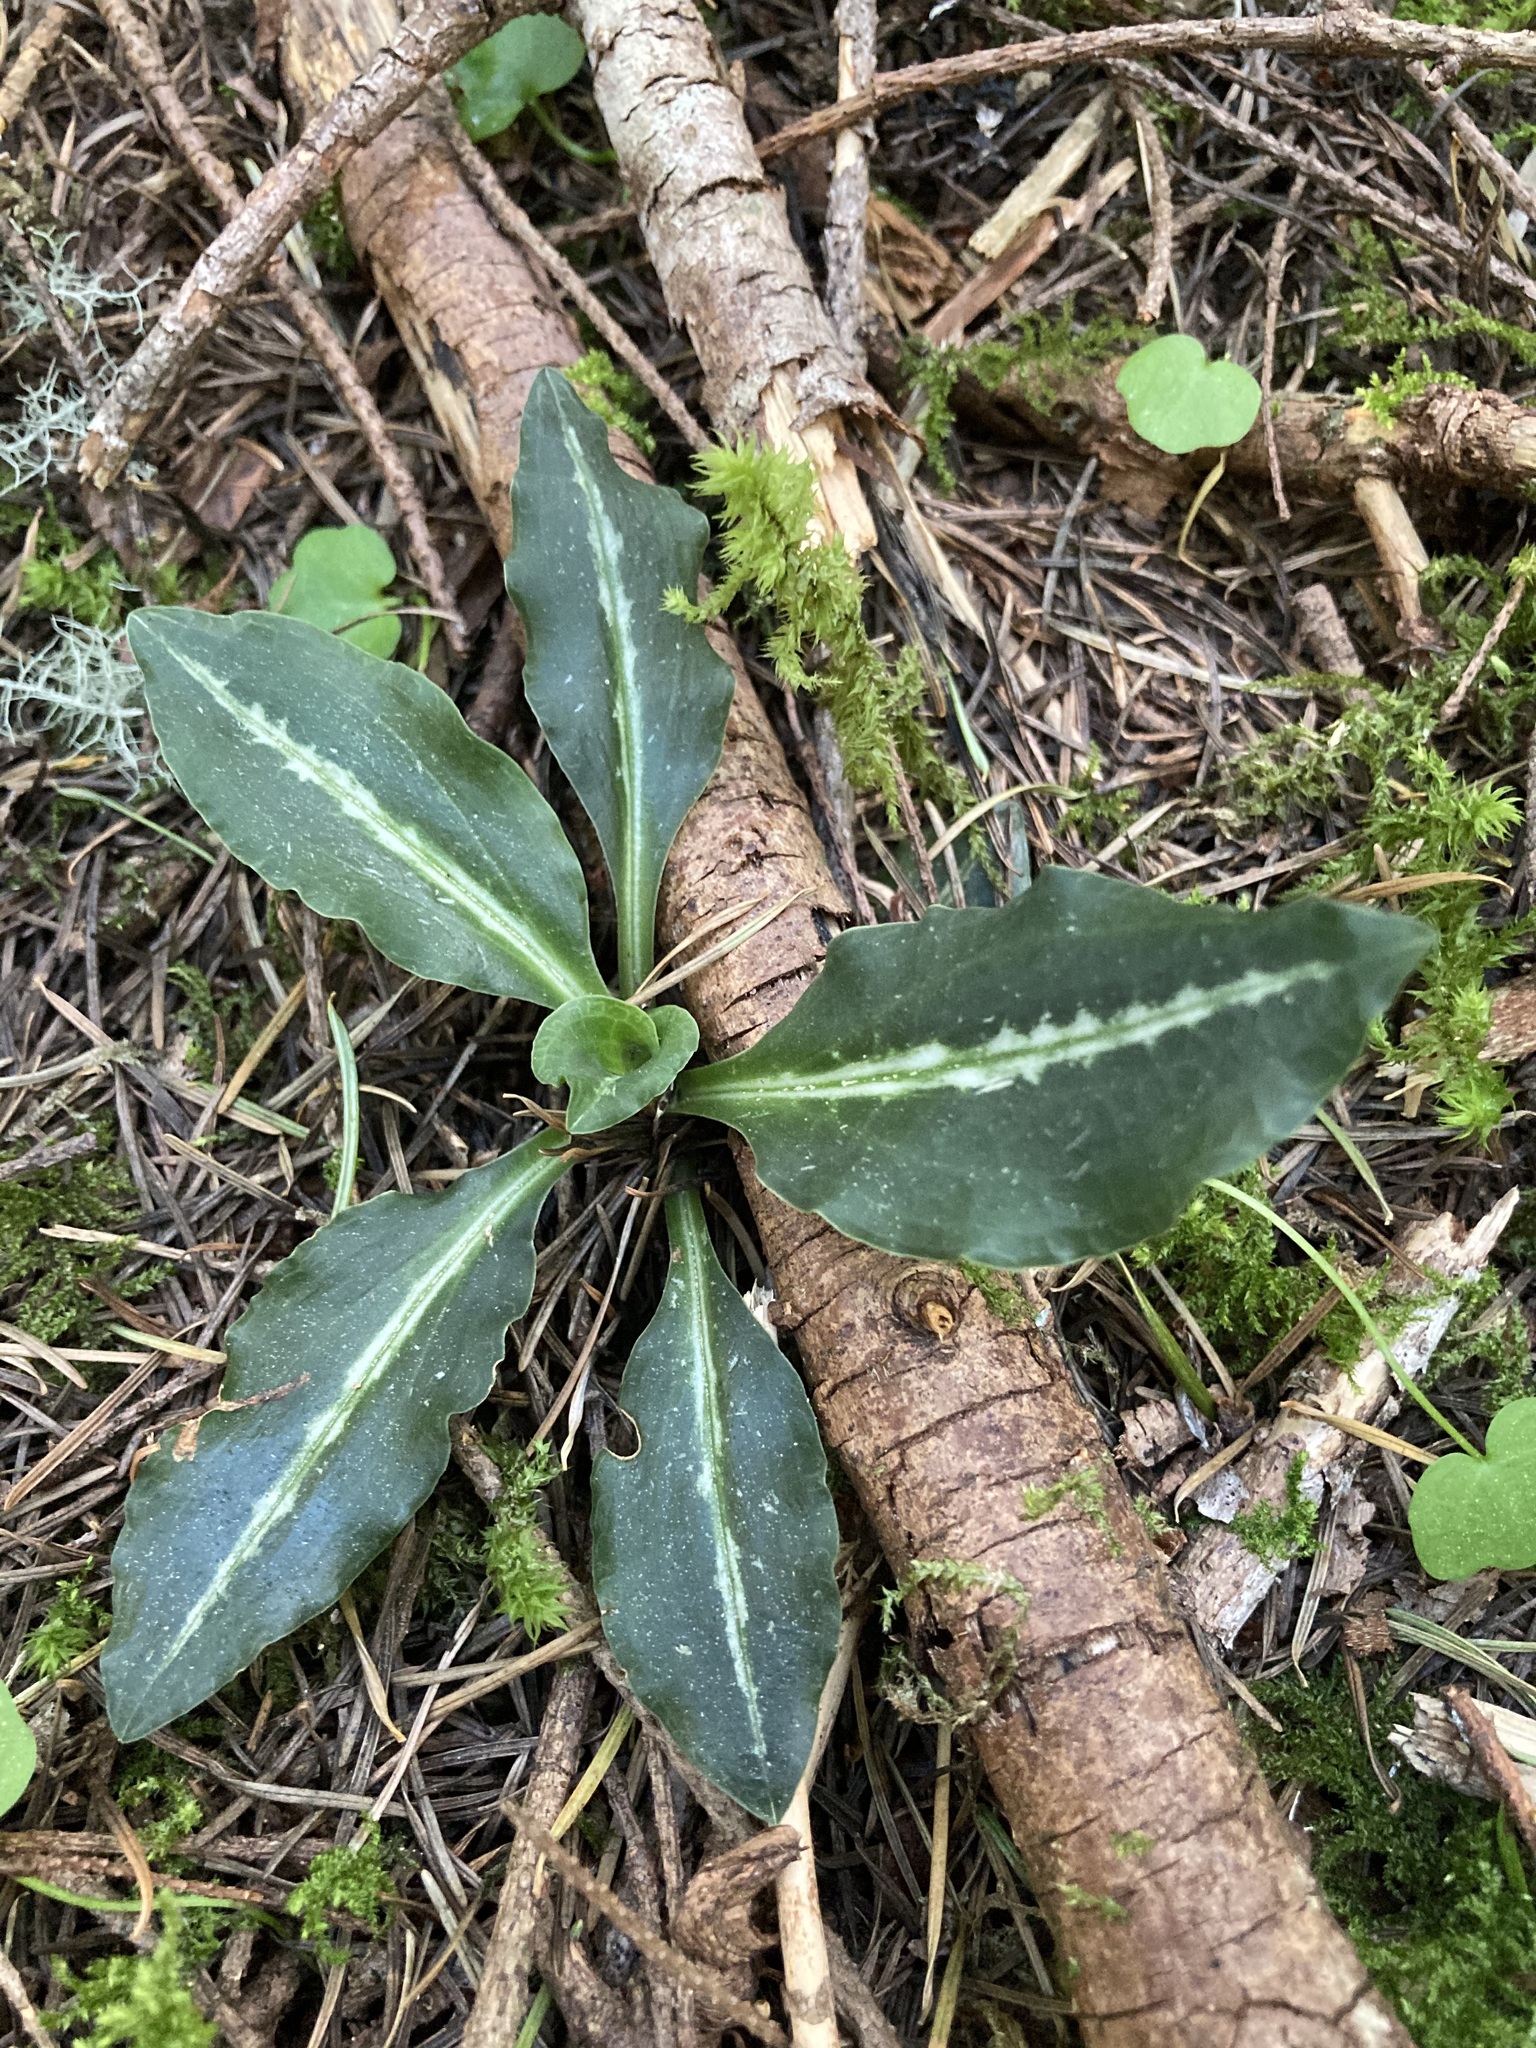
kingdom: Plantae
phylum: Tracheophyta
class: Liliopsida
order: Asparagales
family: Orchidaceae
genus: Goodyera
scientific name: Goodyera oblongifolia
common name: Giant rattlesnake-plantain
